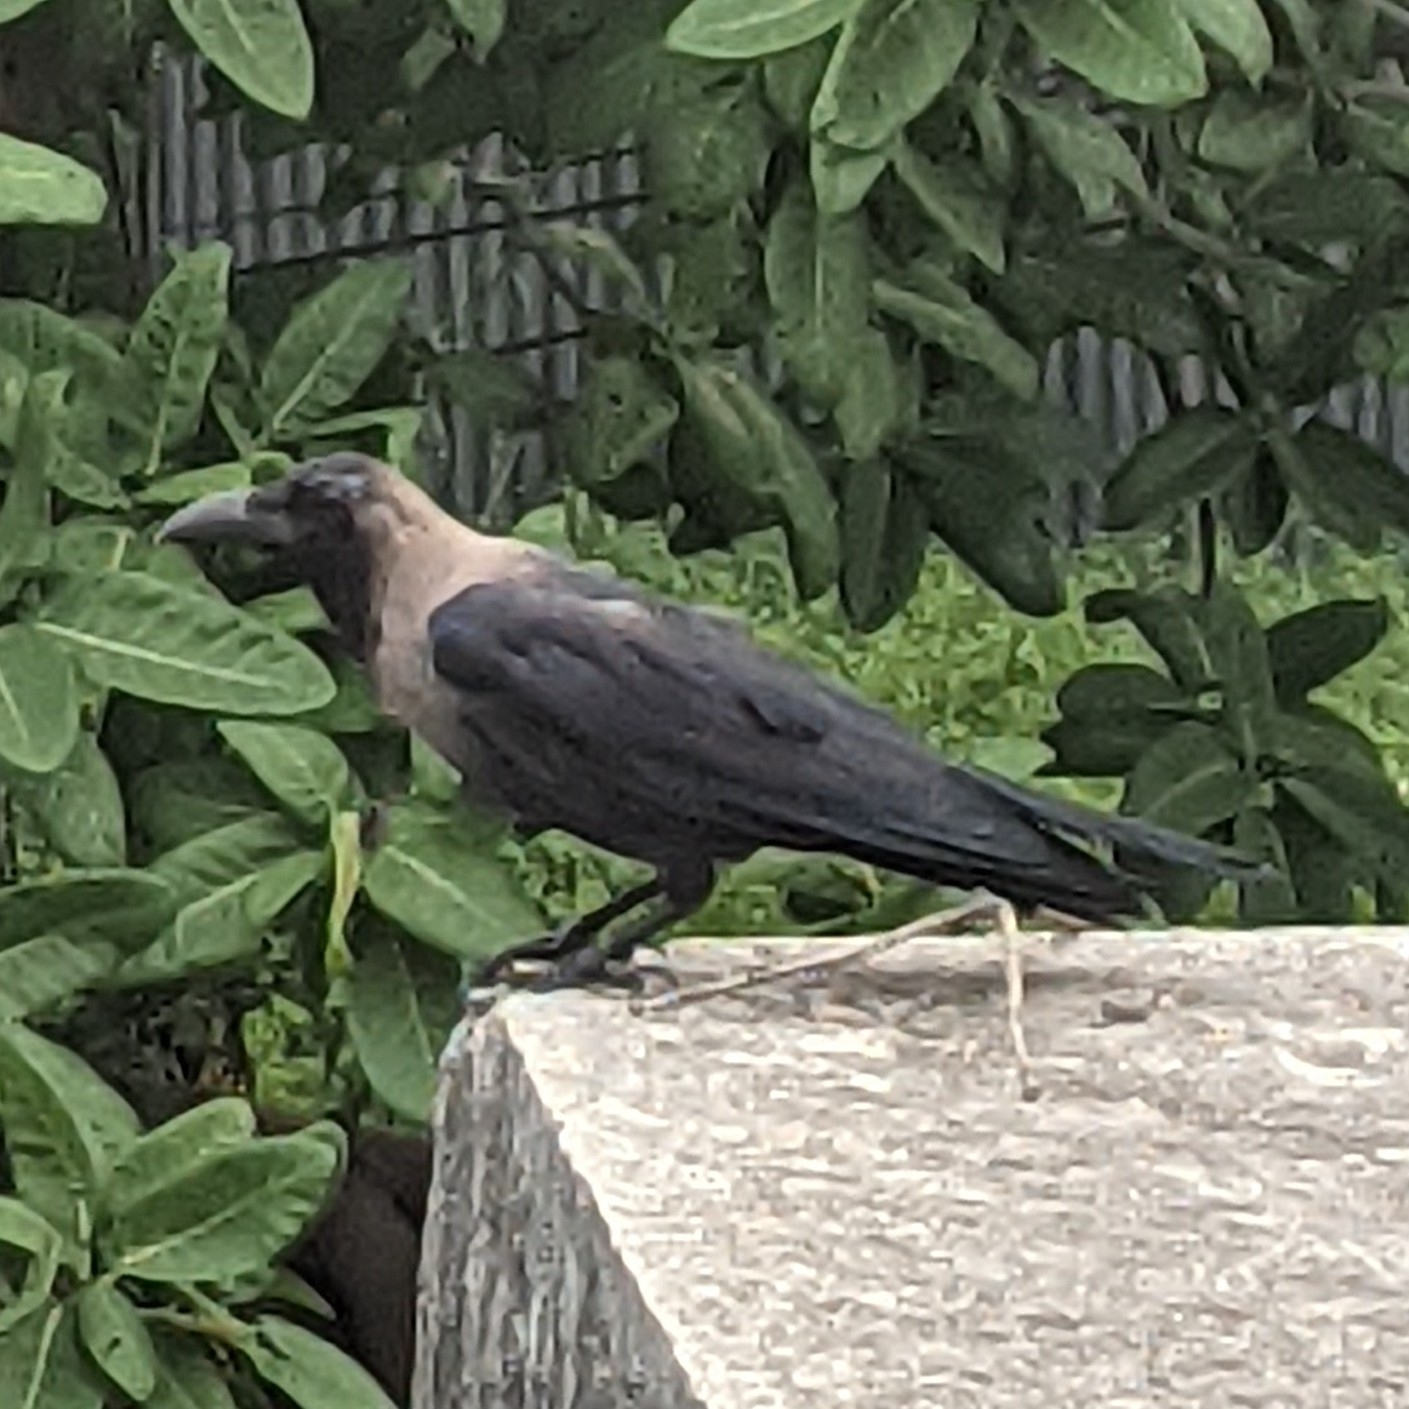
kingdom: Animalia
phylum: Chordata
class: Aves
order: Passeriformes
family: Corvidae
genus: Corvus
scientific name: Corvus splendens
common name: House crow
